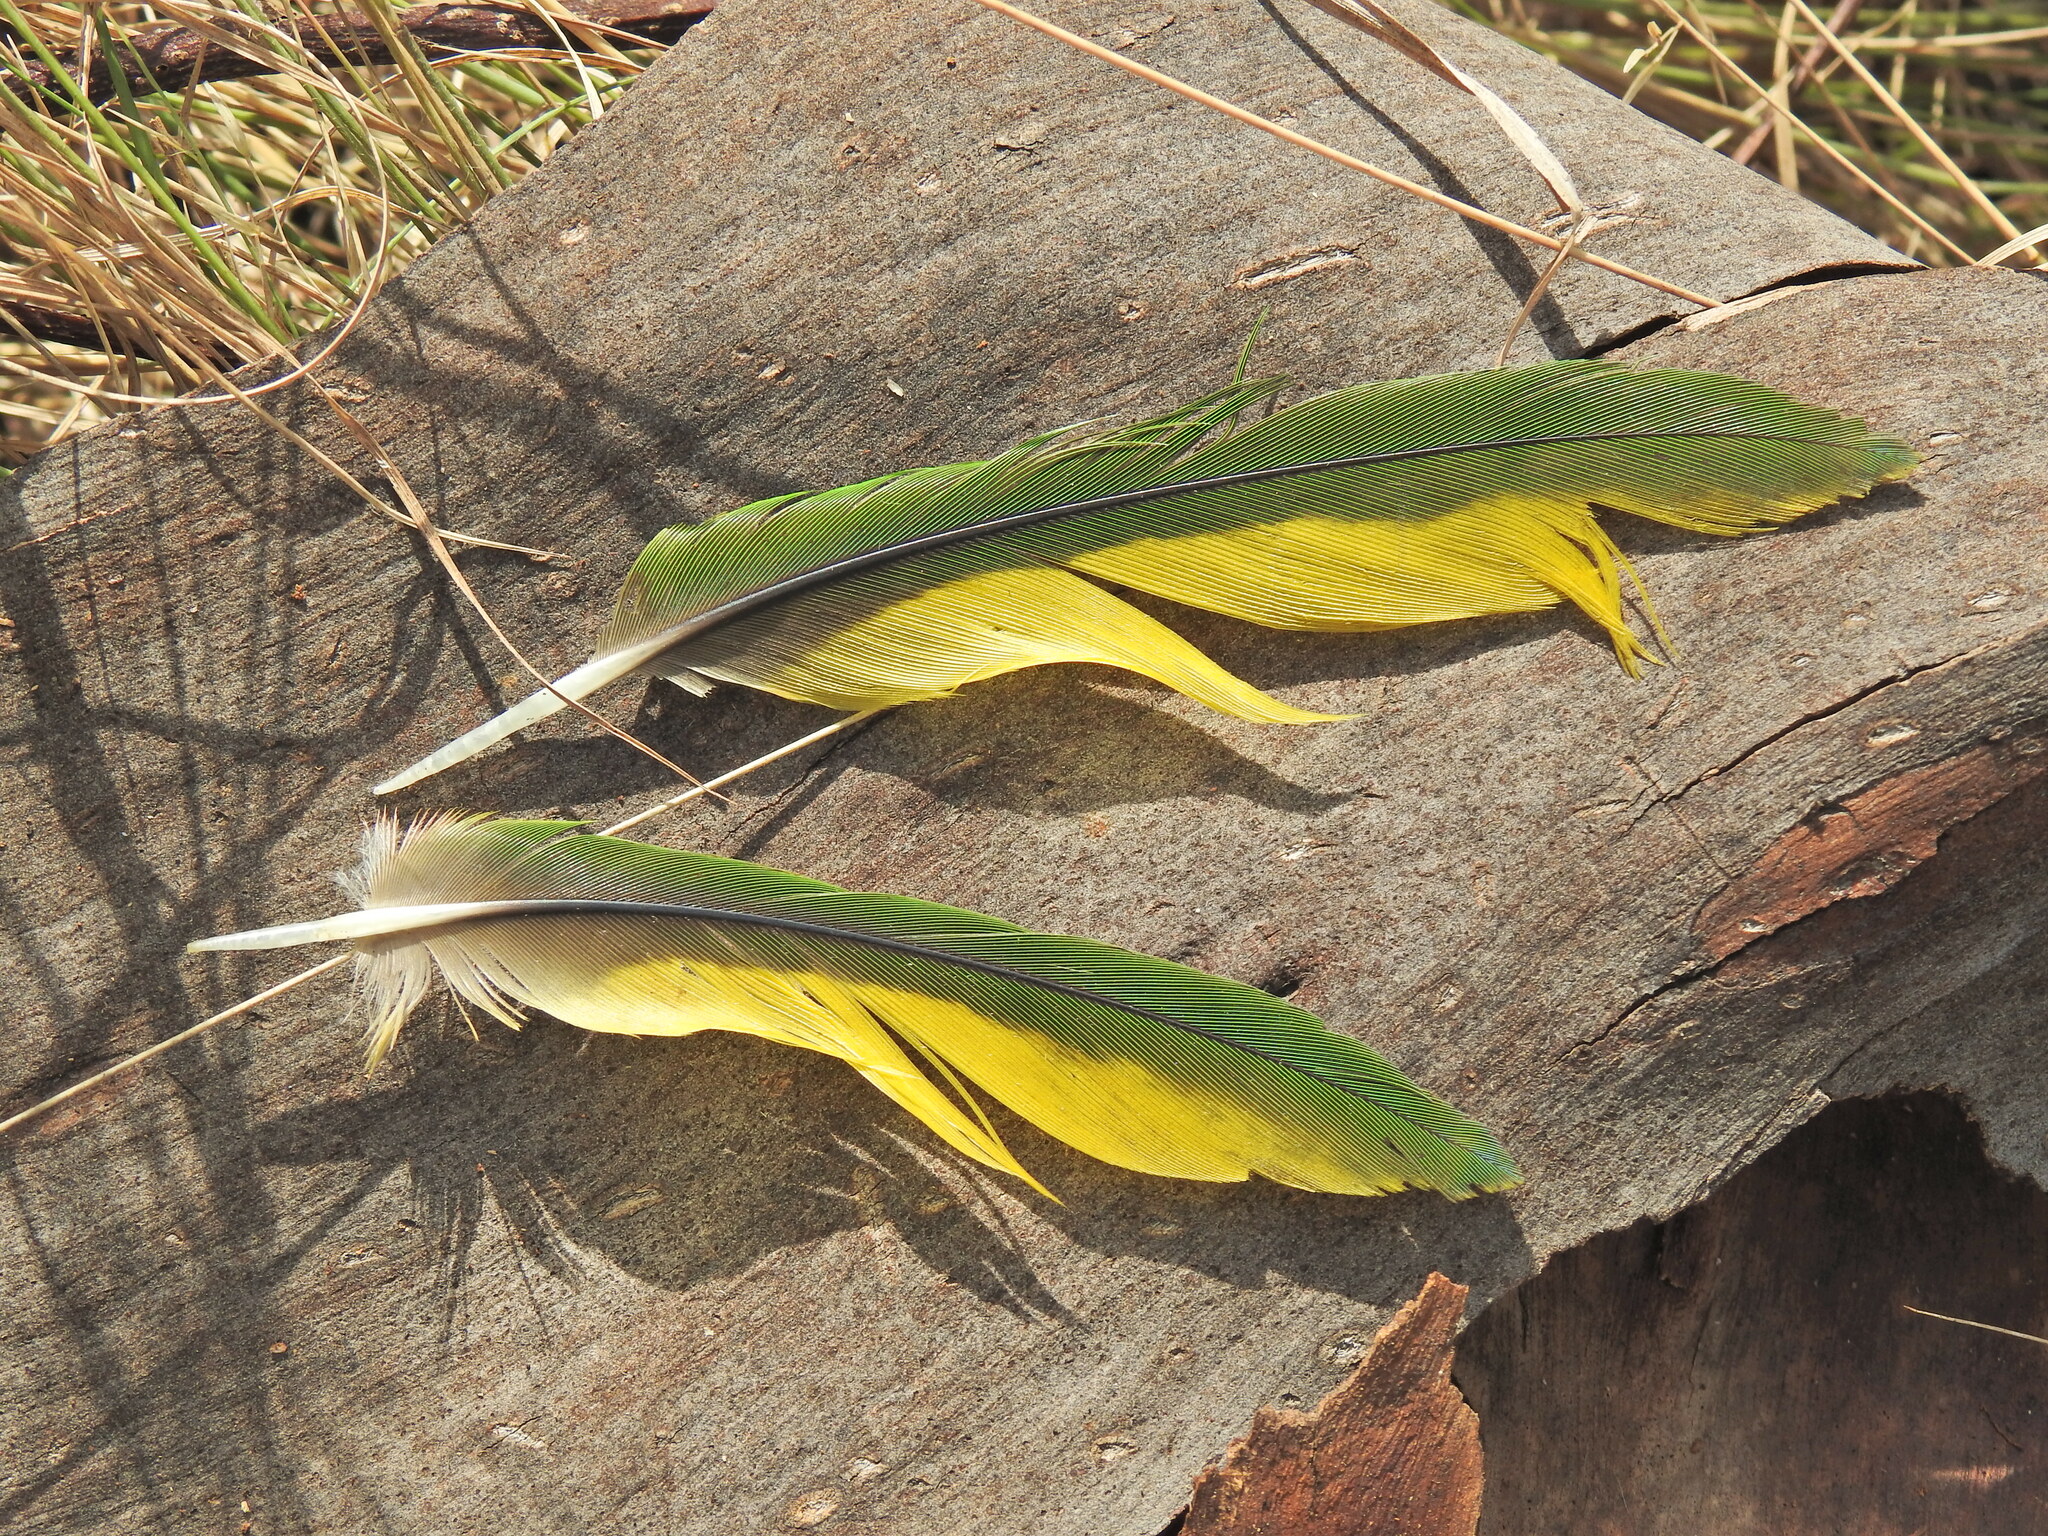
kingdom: Animalia
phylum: Chordata
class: Aves
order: Psittaciformes
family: Psittacidae
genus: Trichoglossus
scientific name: Trichoglossus haematodus
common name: Coconut lorikeet
